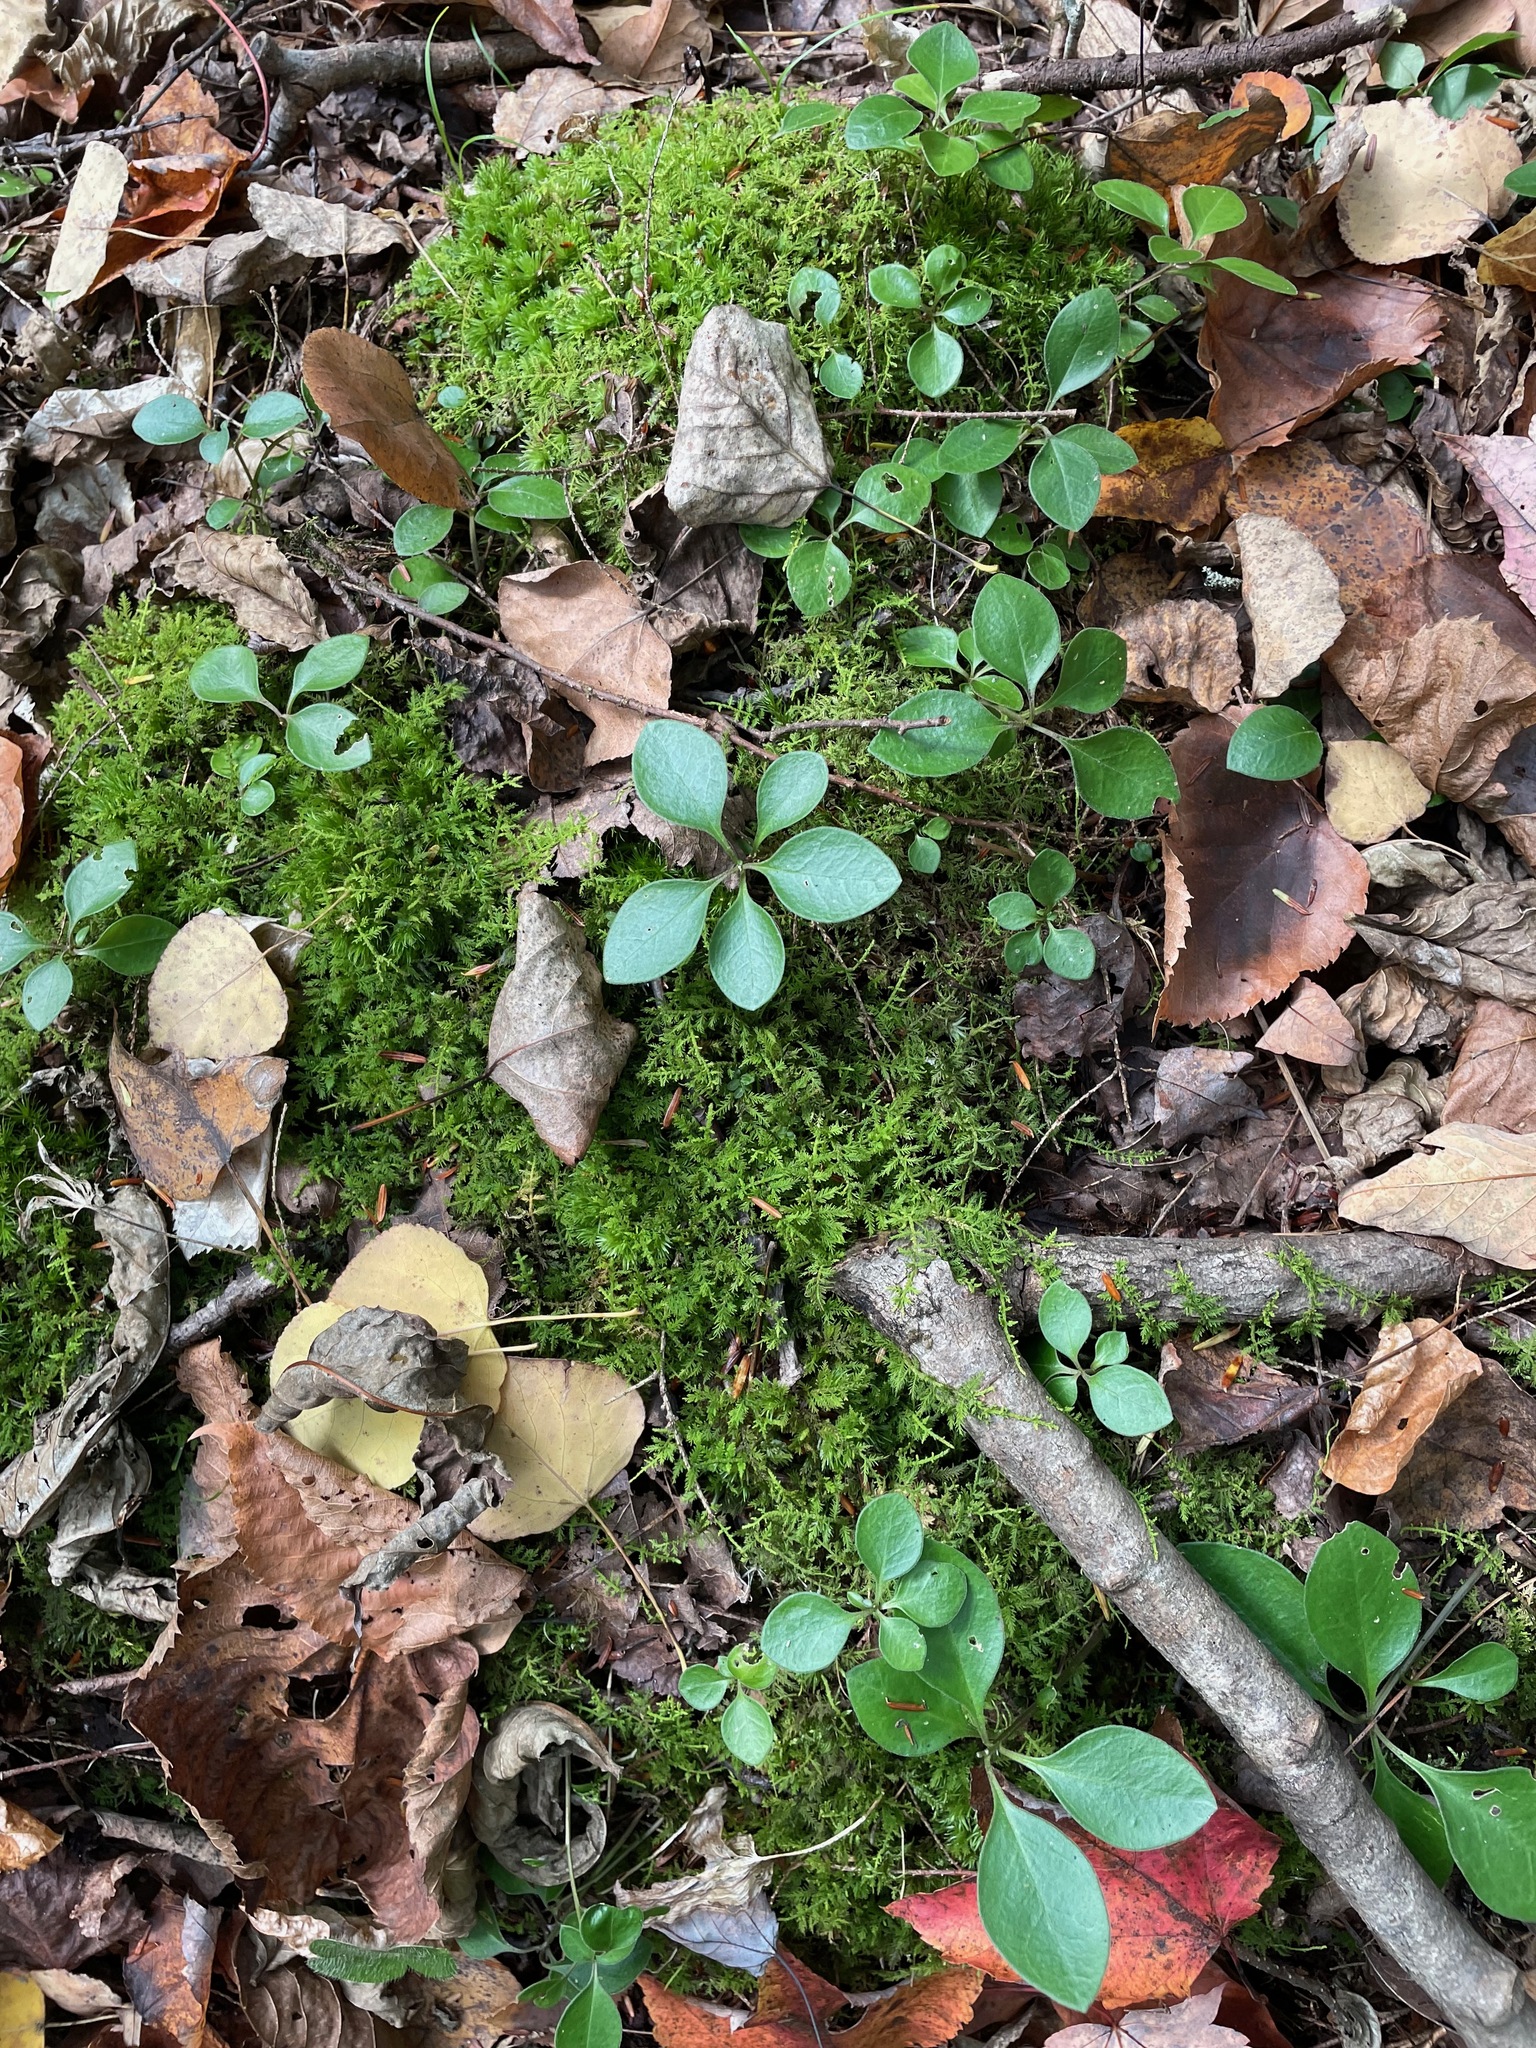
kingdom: Plantae
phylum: Tracheophyta
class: Magnoliopsida
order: Fabales
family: Polygalaceae
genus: Polygaloides
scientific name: Polygaloides paucifolia
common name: Bird-on-the-wing
